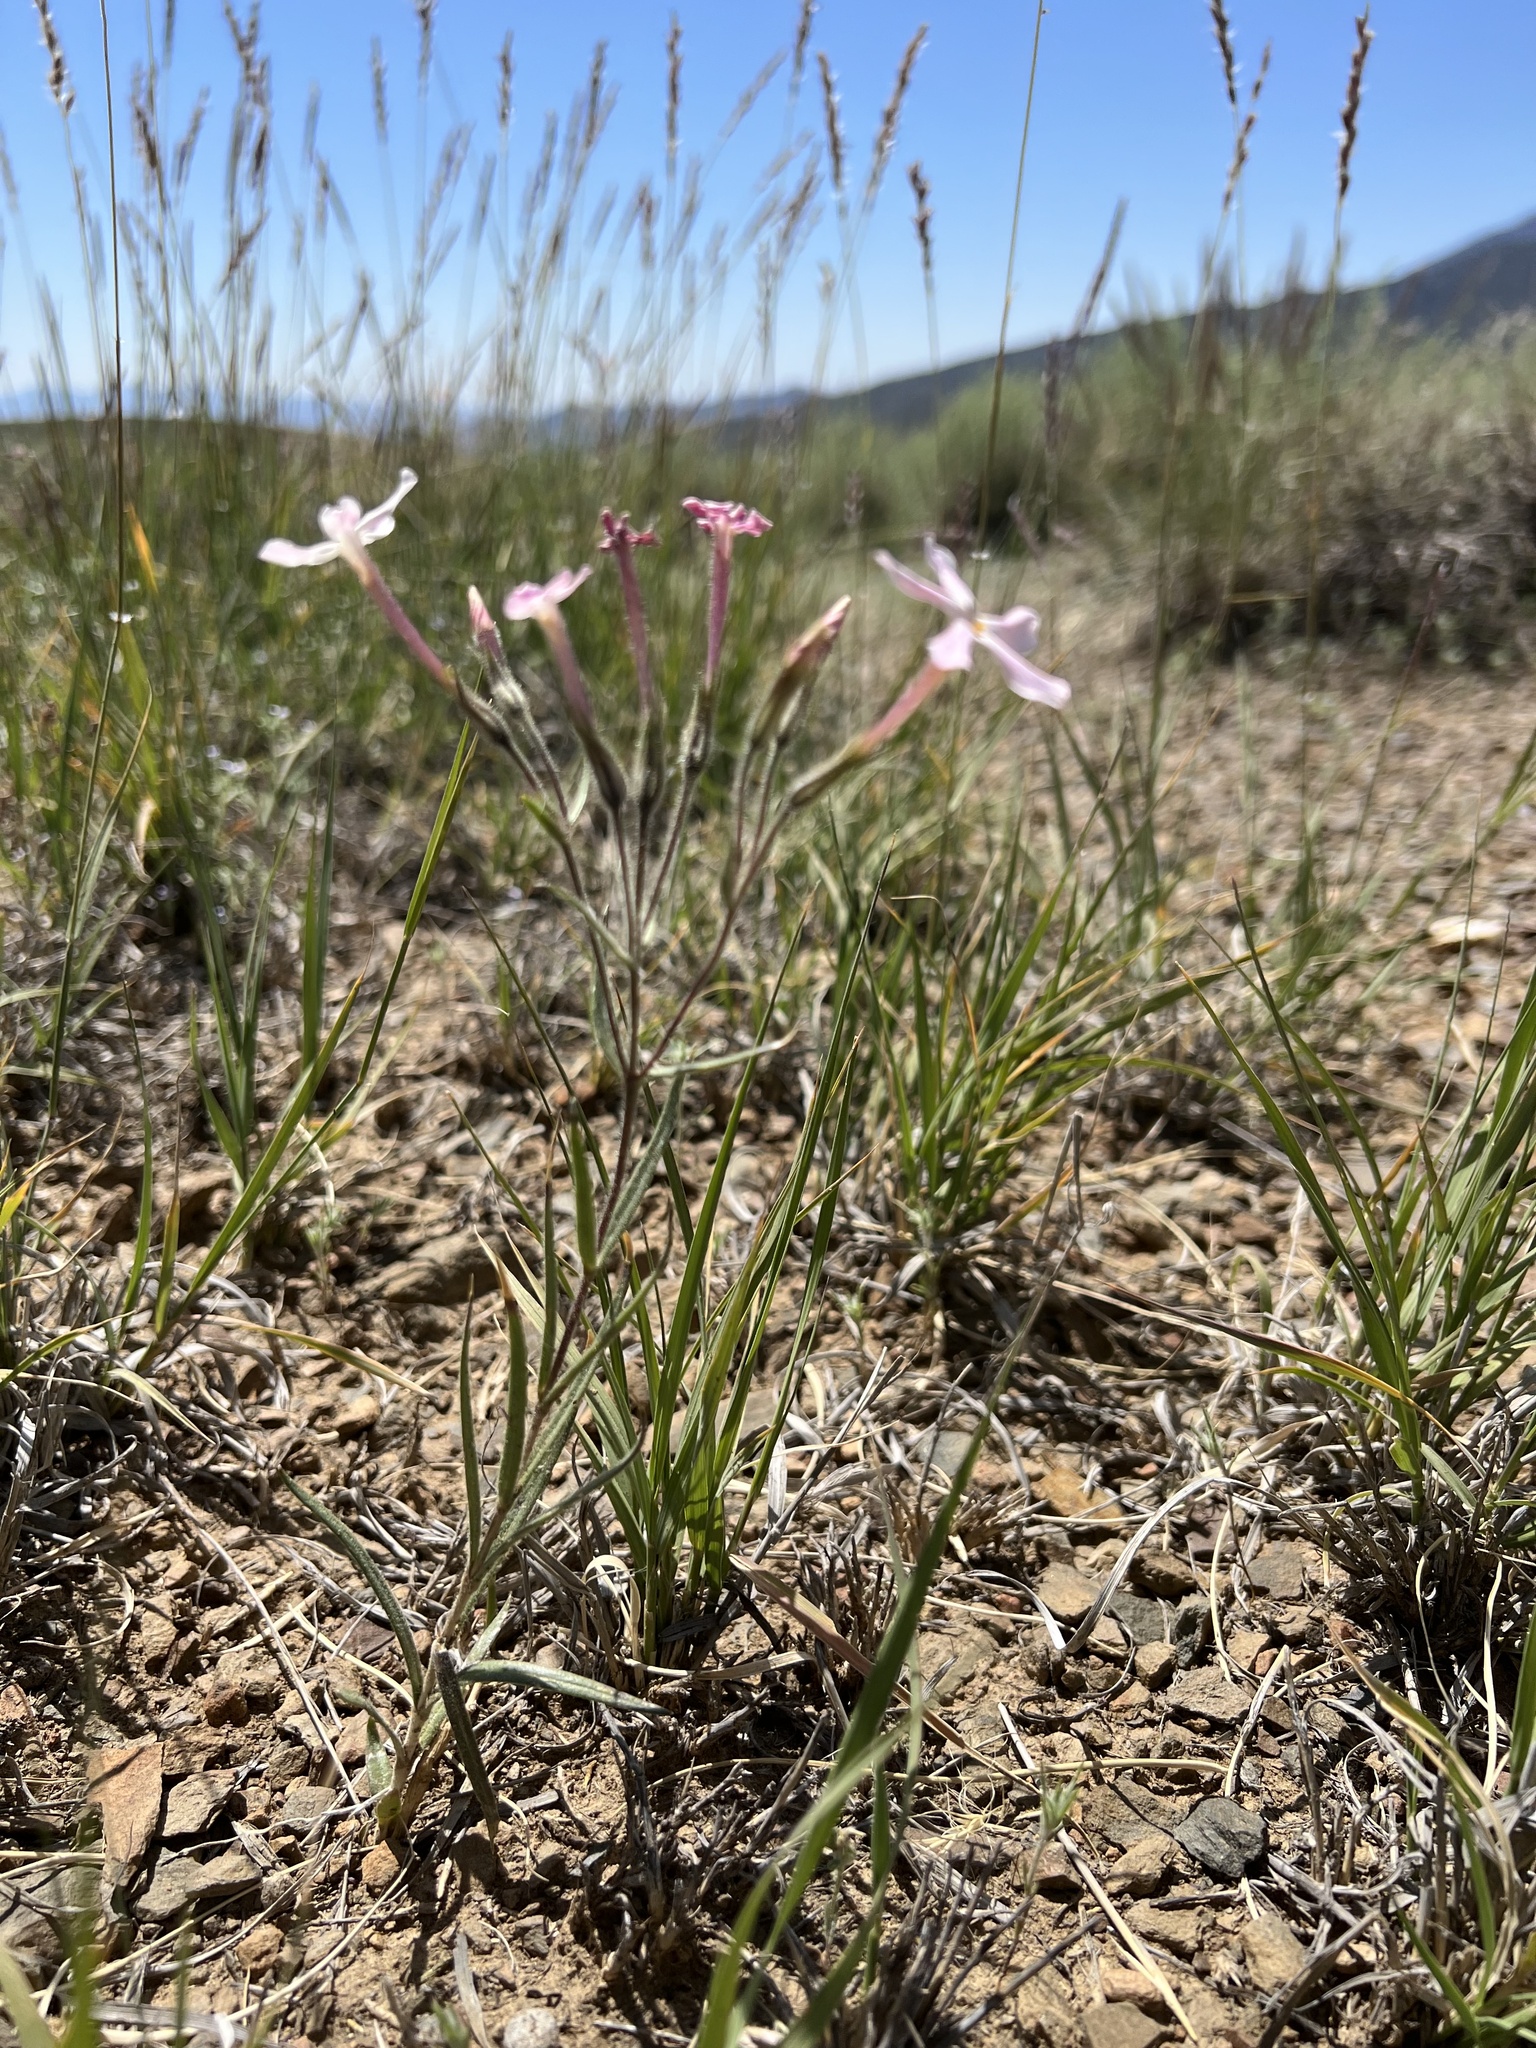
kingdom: Plantae
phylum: Tracheophyta
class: Magnoliopsida
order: Ericales
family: Polemoniaceae
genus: Phlox
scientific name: Phlox longifolia
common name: Longleaf phlox
